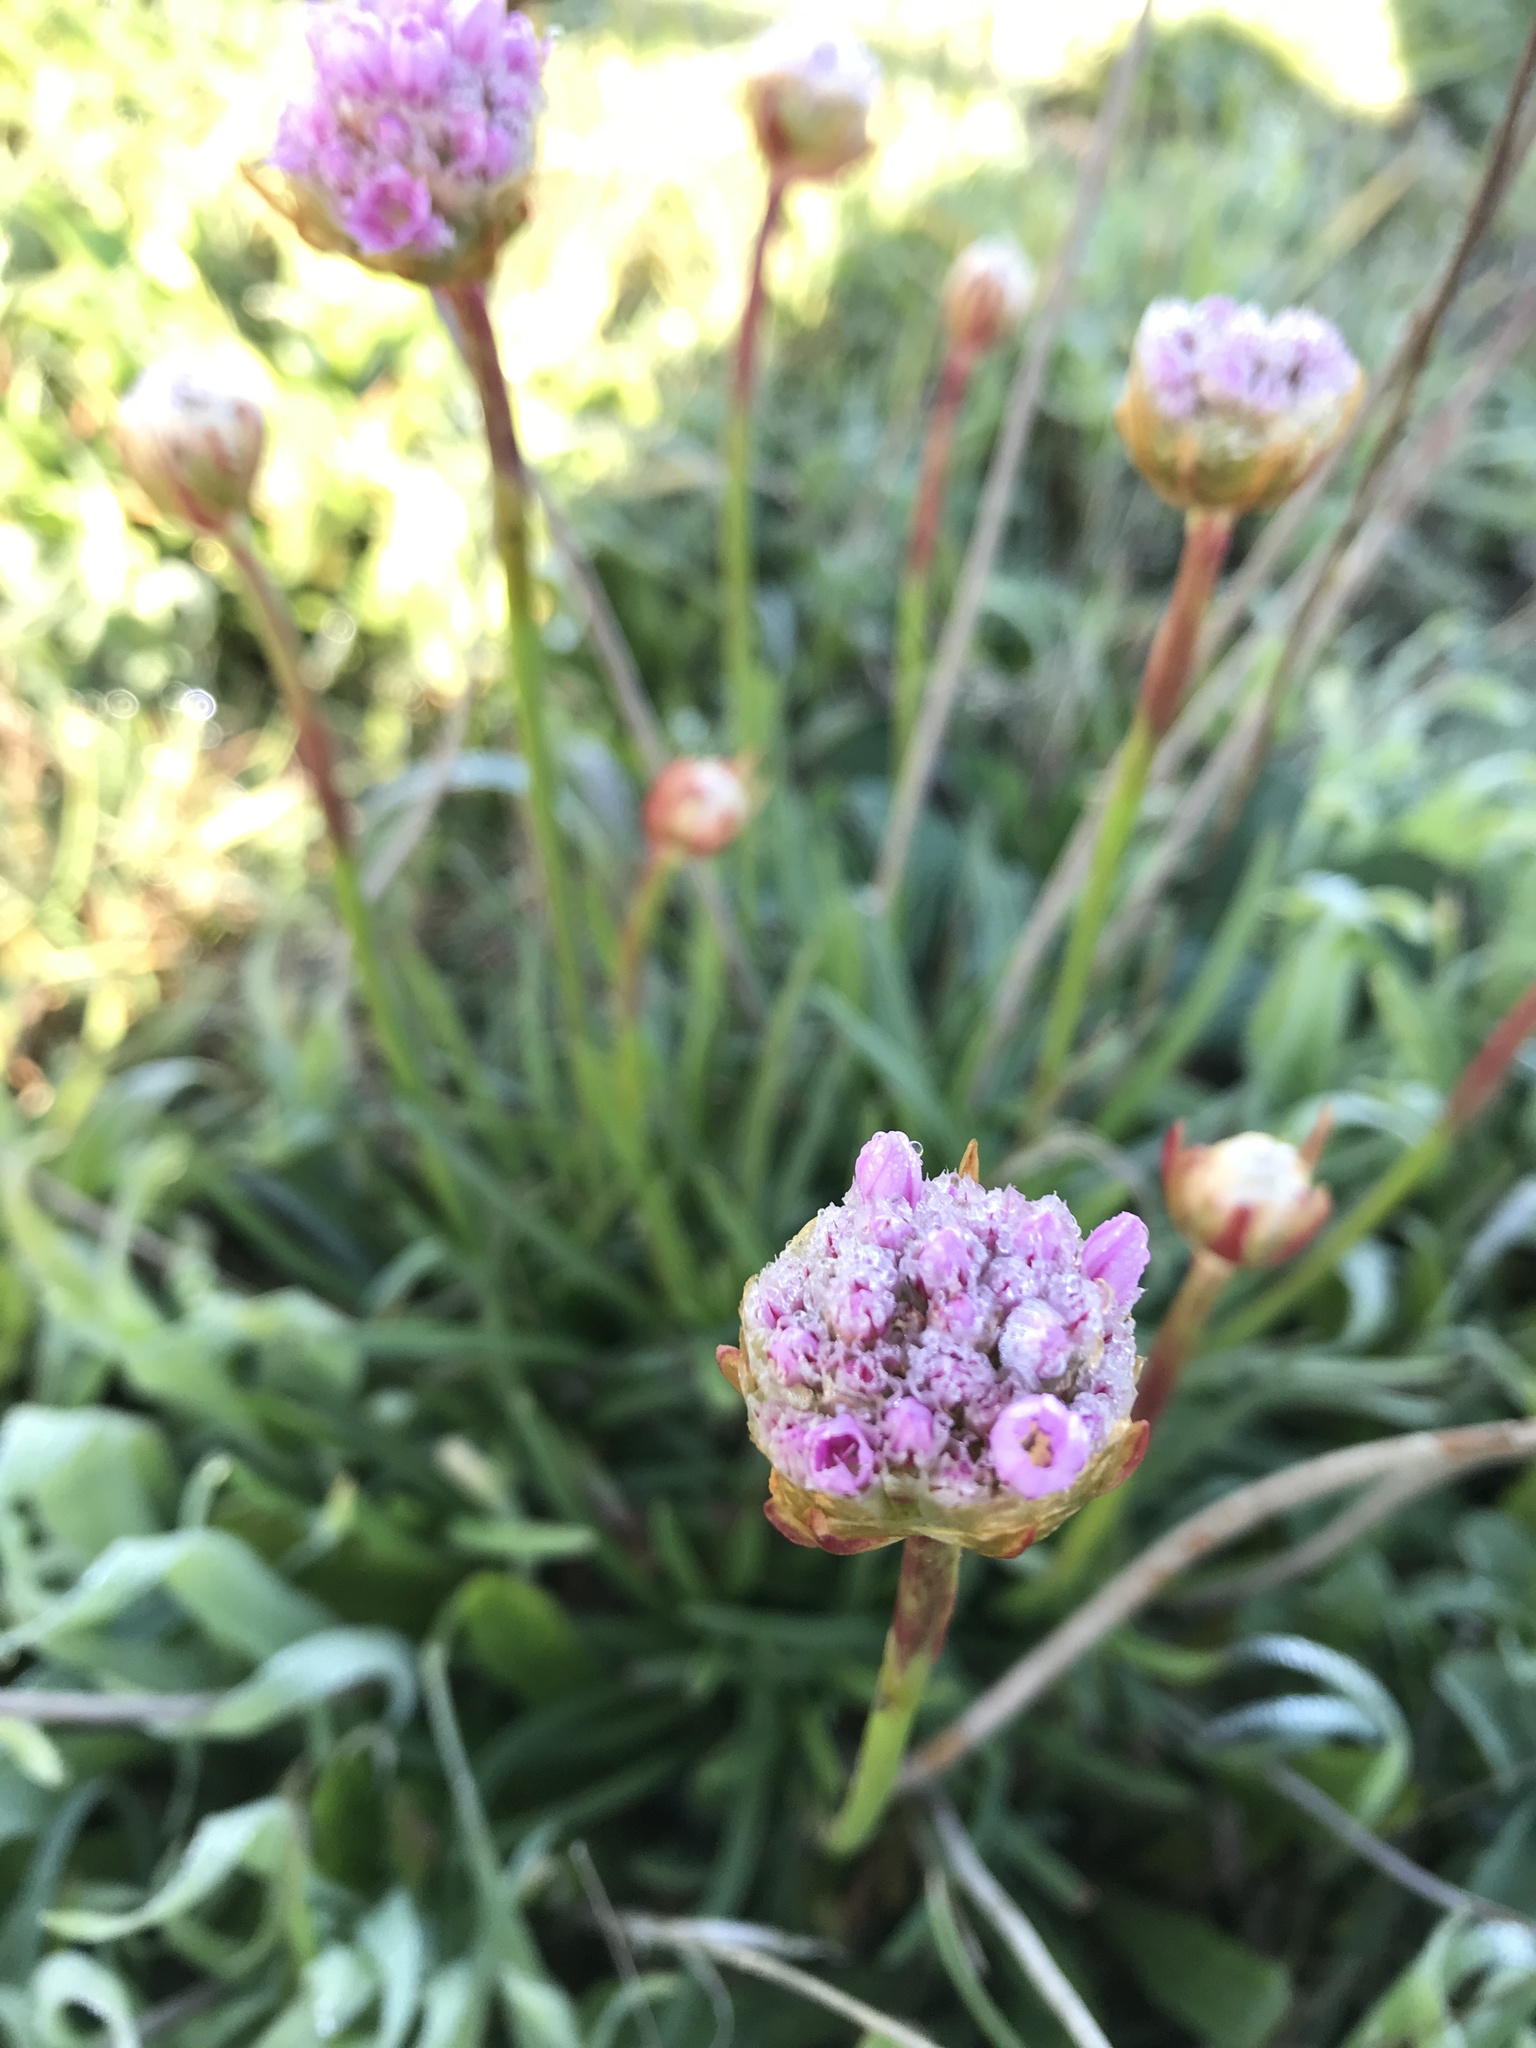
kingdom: Plantae
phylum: Tracheophyta
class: Magnoliopsida
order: Caryophyllales
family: Plumbaginaceae
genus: Armeria
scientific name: Armeria maritima
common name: Thrift
